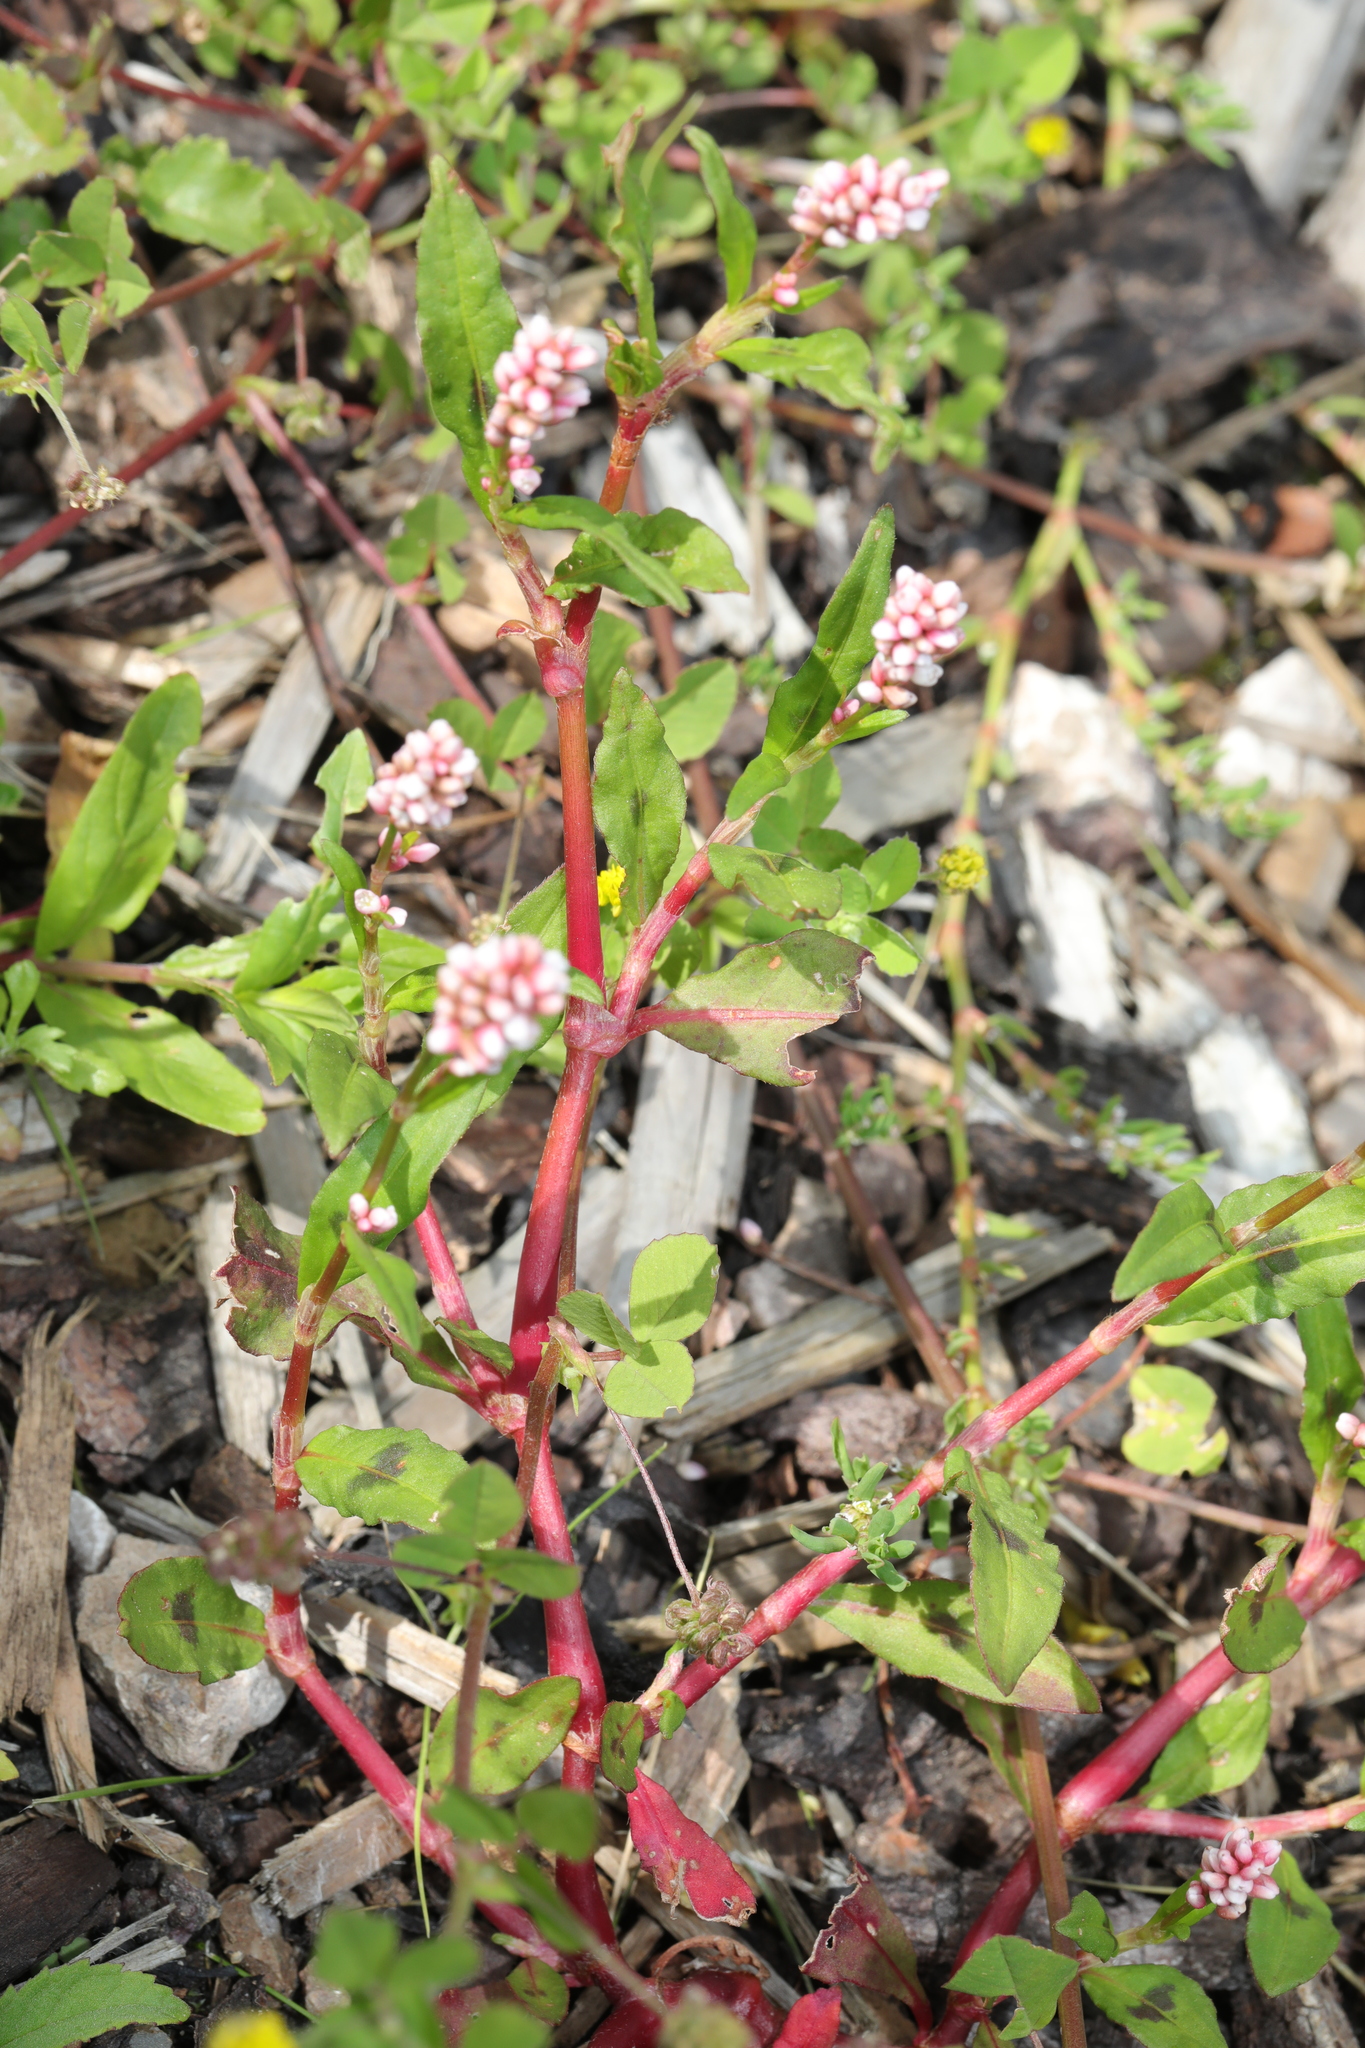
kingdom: Plantae
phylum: Tracheophyta
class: Magnoliopsida
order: Caryophyllales
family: Polygonaceae
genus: Persicaria
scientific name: Persicaria maculosa
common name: Redshank
